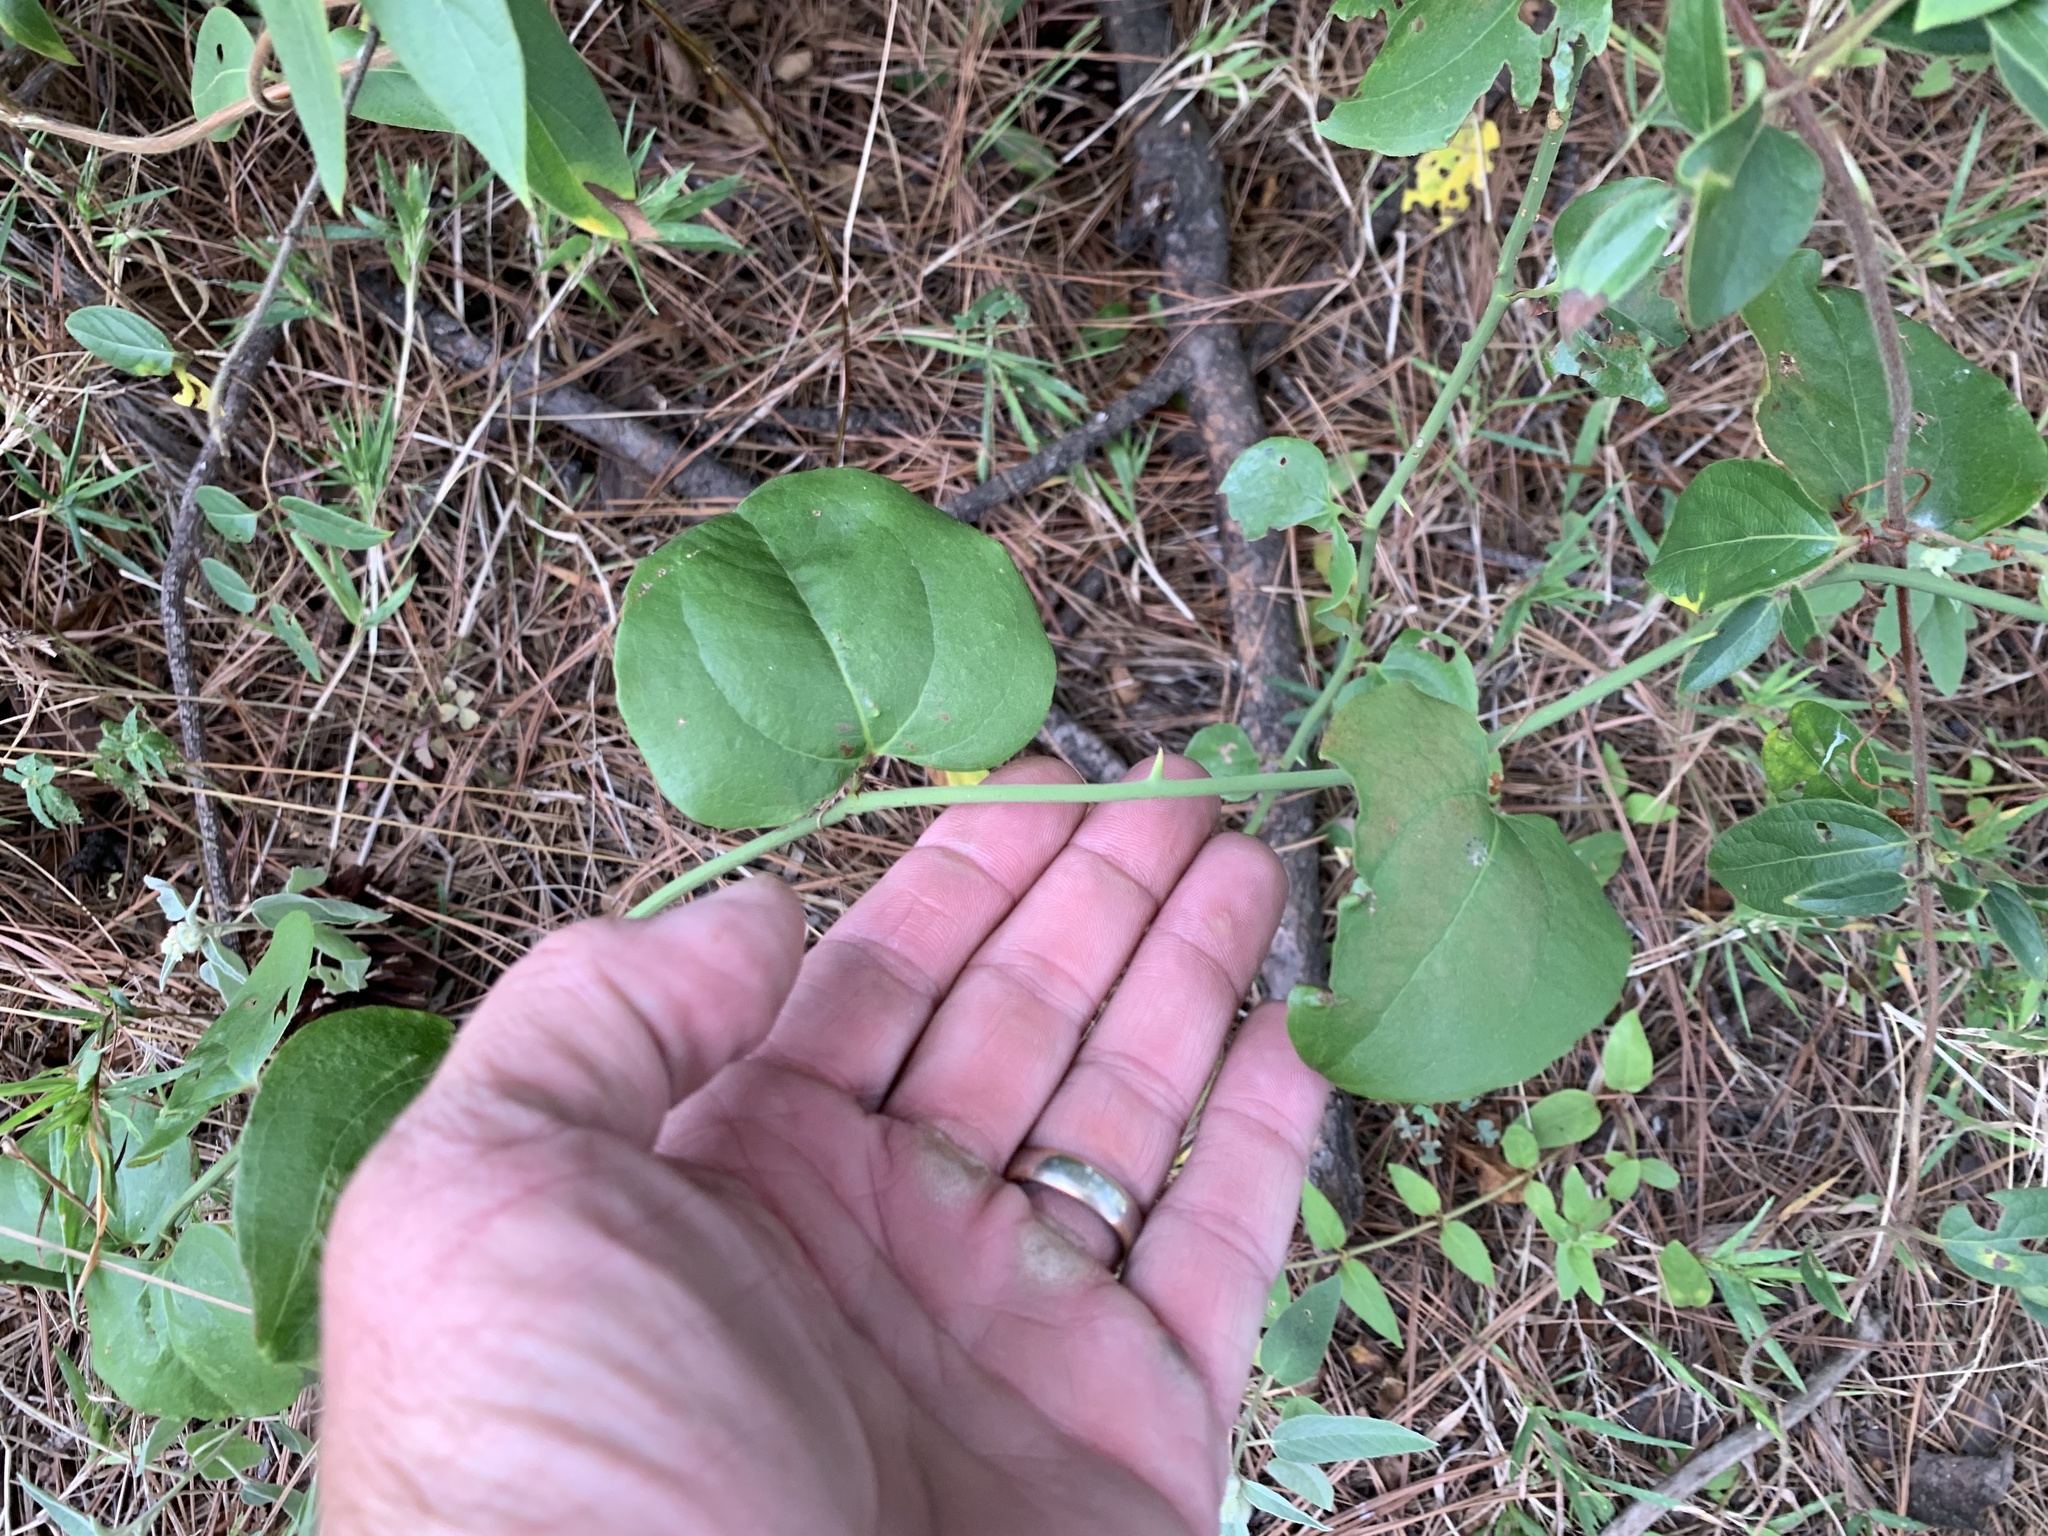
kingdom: Plantae
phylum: Tracheophyta
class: Liliopsida
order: Liliales
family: Smilacaceae
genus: Smilax
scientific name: Smilax bona-nox
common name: Catbrier
